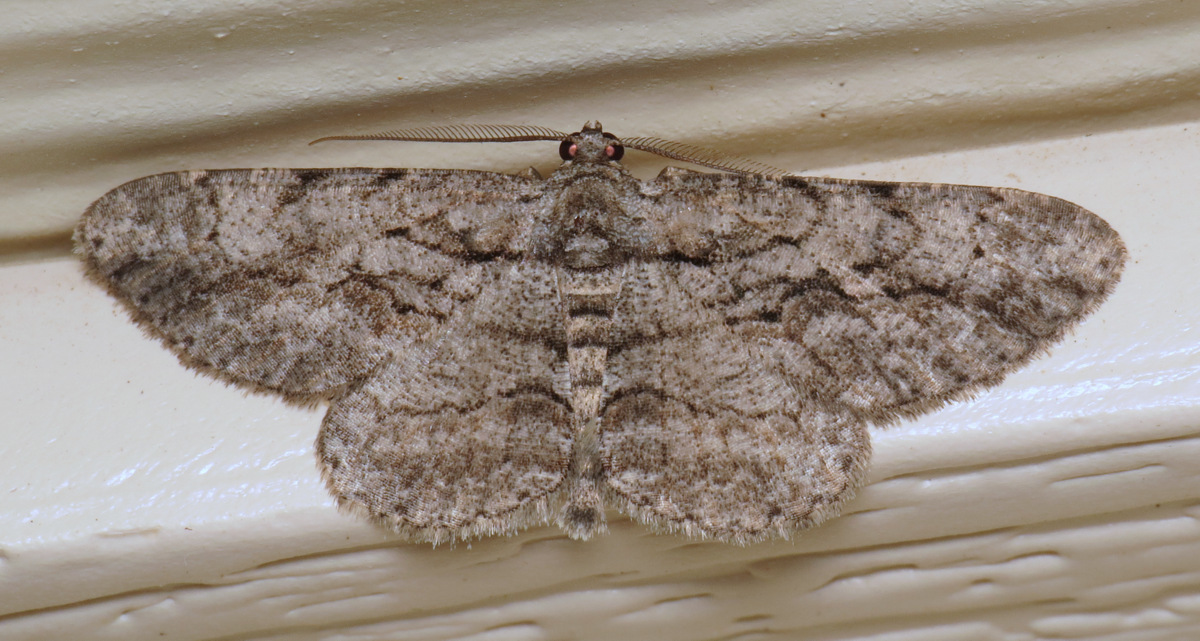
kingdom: Animalia
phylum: Arthropoda
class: Insecta
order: Lepidoptera
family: Geometridae
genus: Anavitrinella
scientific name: Anavitrinella pampinaria
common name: Common gray
